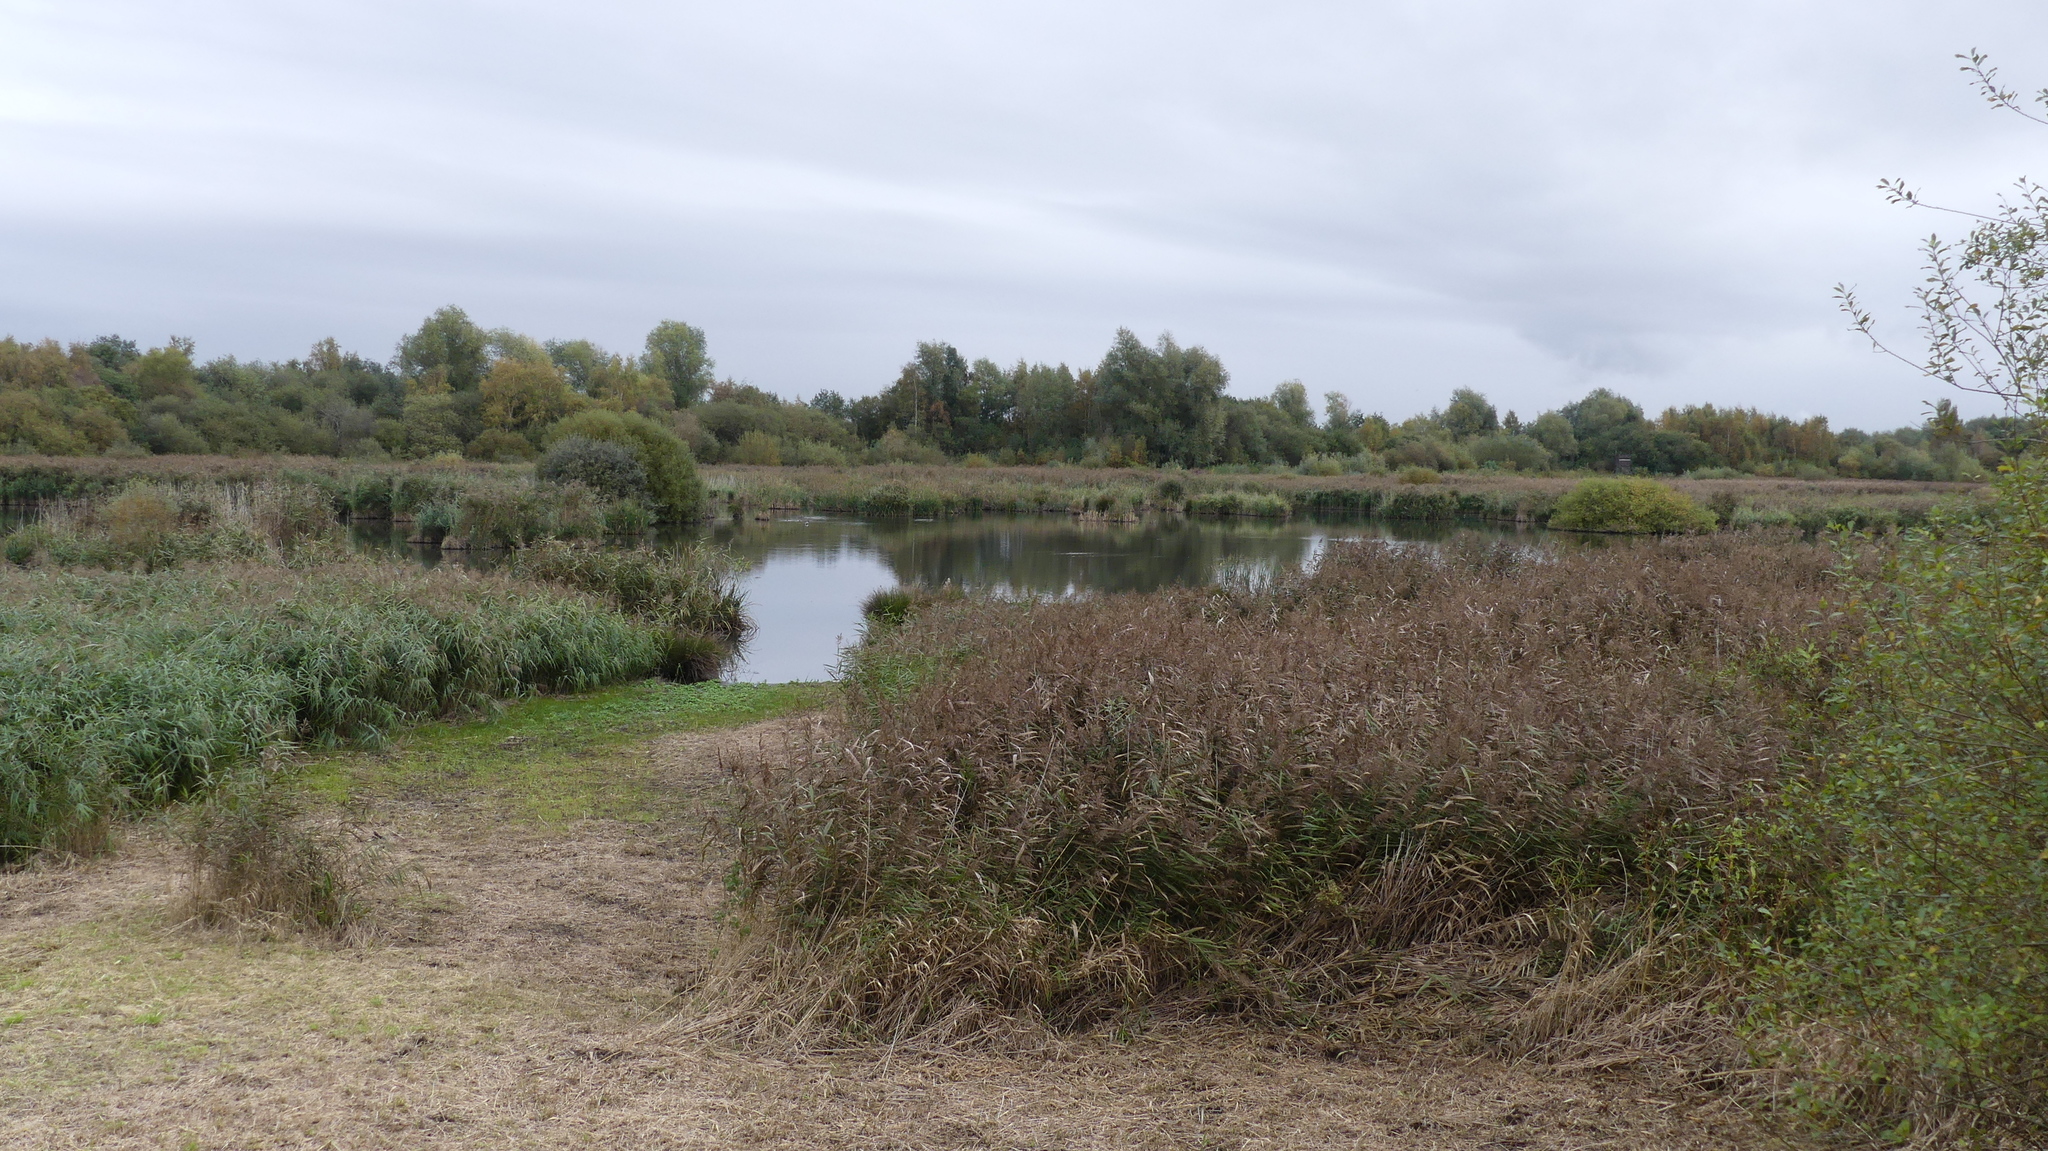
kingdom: Plantae
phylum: Tracheophyta
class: Liliopsida
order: Poales
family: Poaceae
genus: Phragmites
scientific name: Phragmites australis
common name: Common reed
